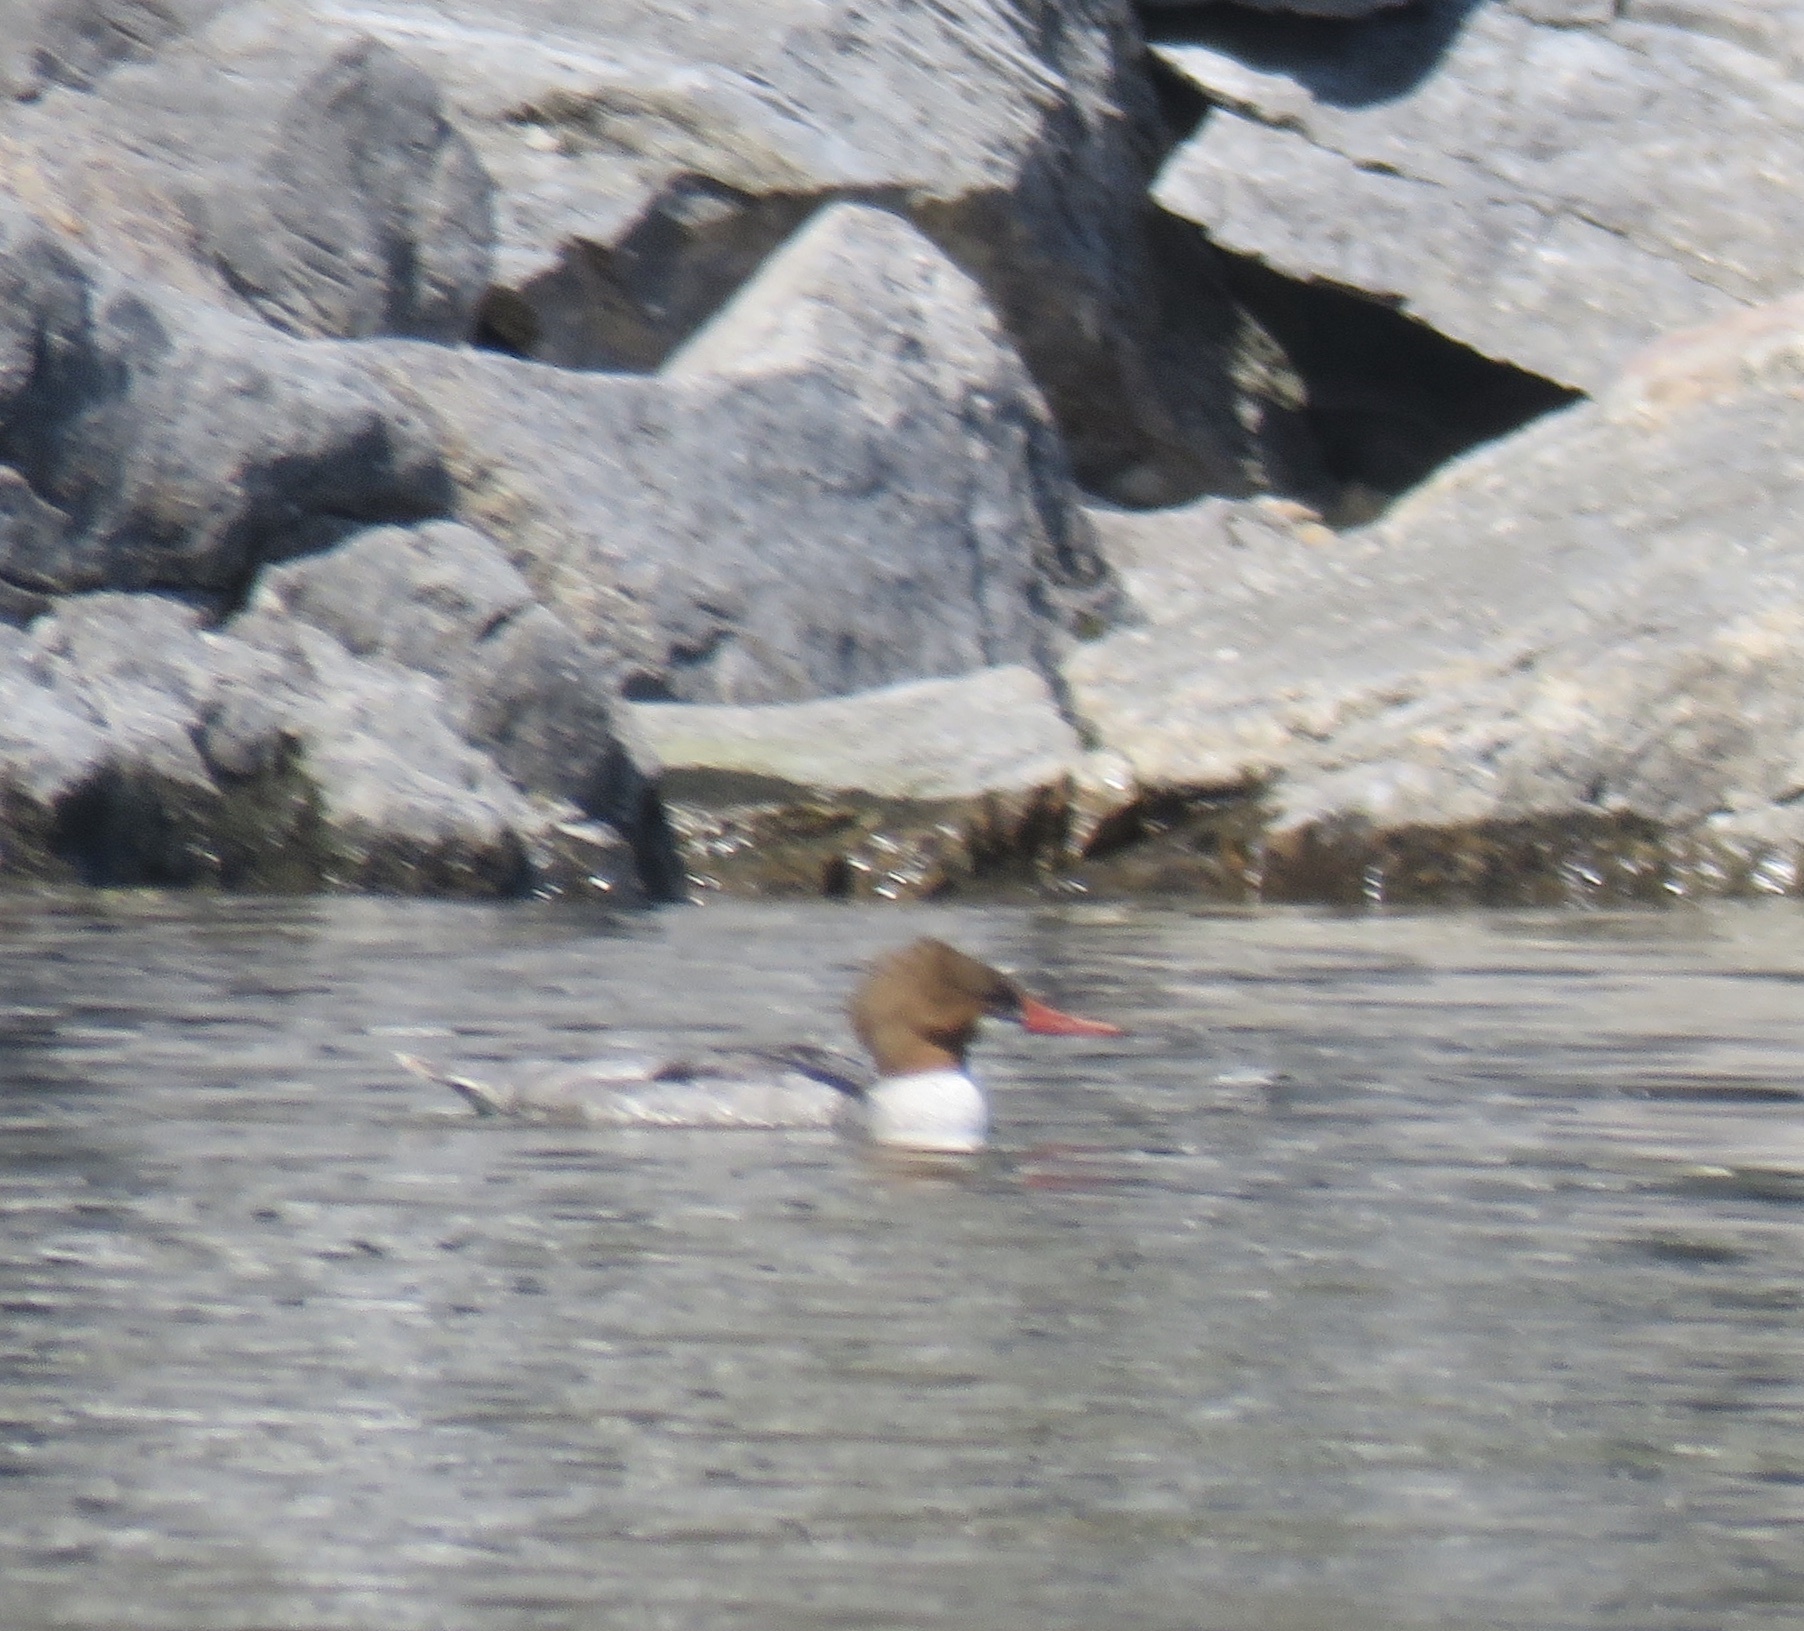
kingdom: Animalia
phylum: Chordata
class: Aves
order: Anseriformes
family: Anatidae
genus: Mergus
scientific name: Mergus merganser
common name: Common merganser
